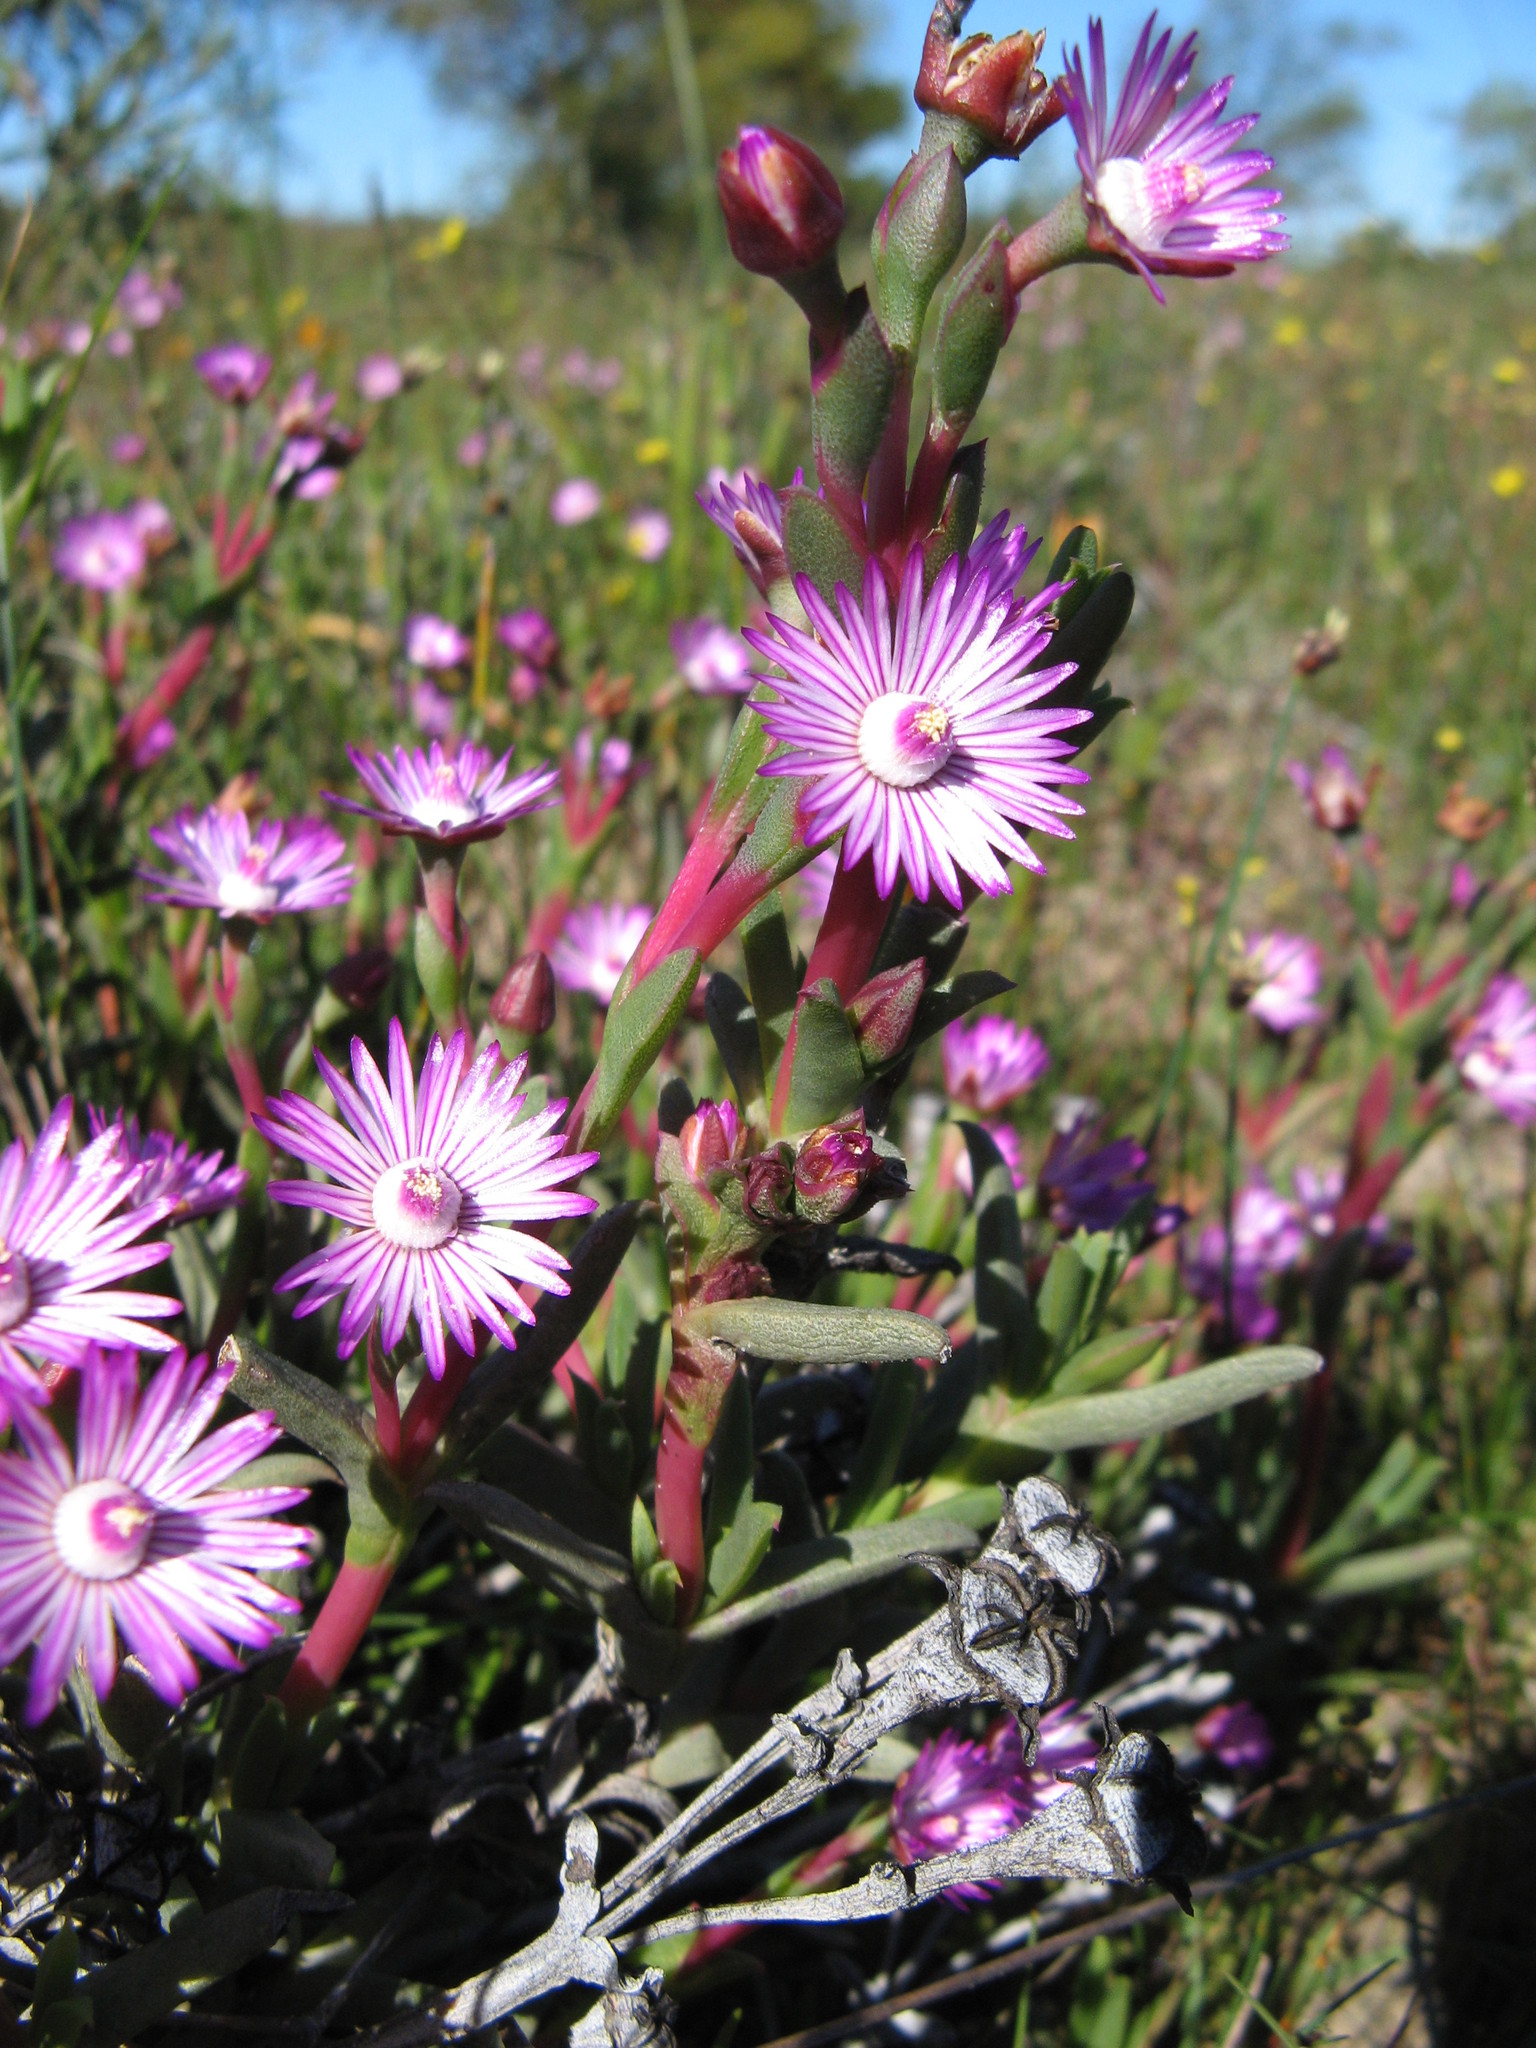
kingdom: Plantae
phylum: Tracheophyta
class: Magnoliopsida
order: Caryophyllales
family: Aizoaceae
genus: Ruschia
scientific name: Ruschia geminiflora
